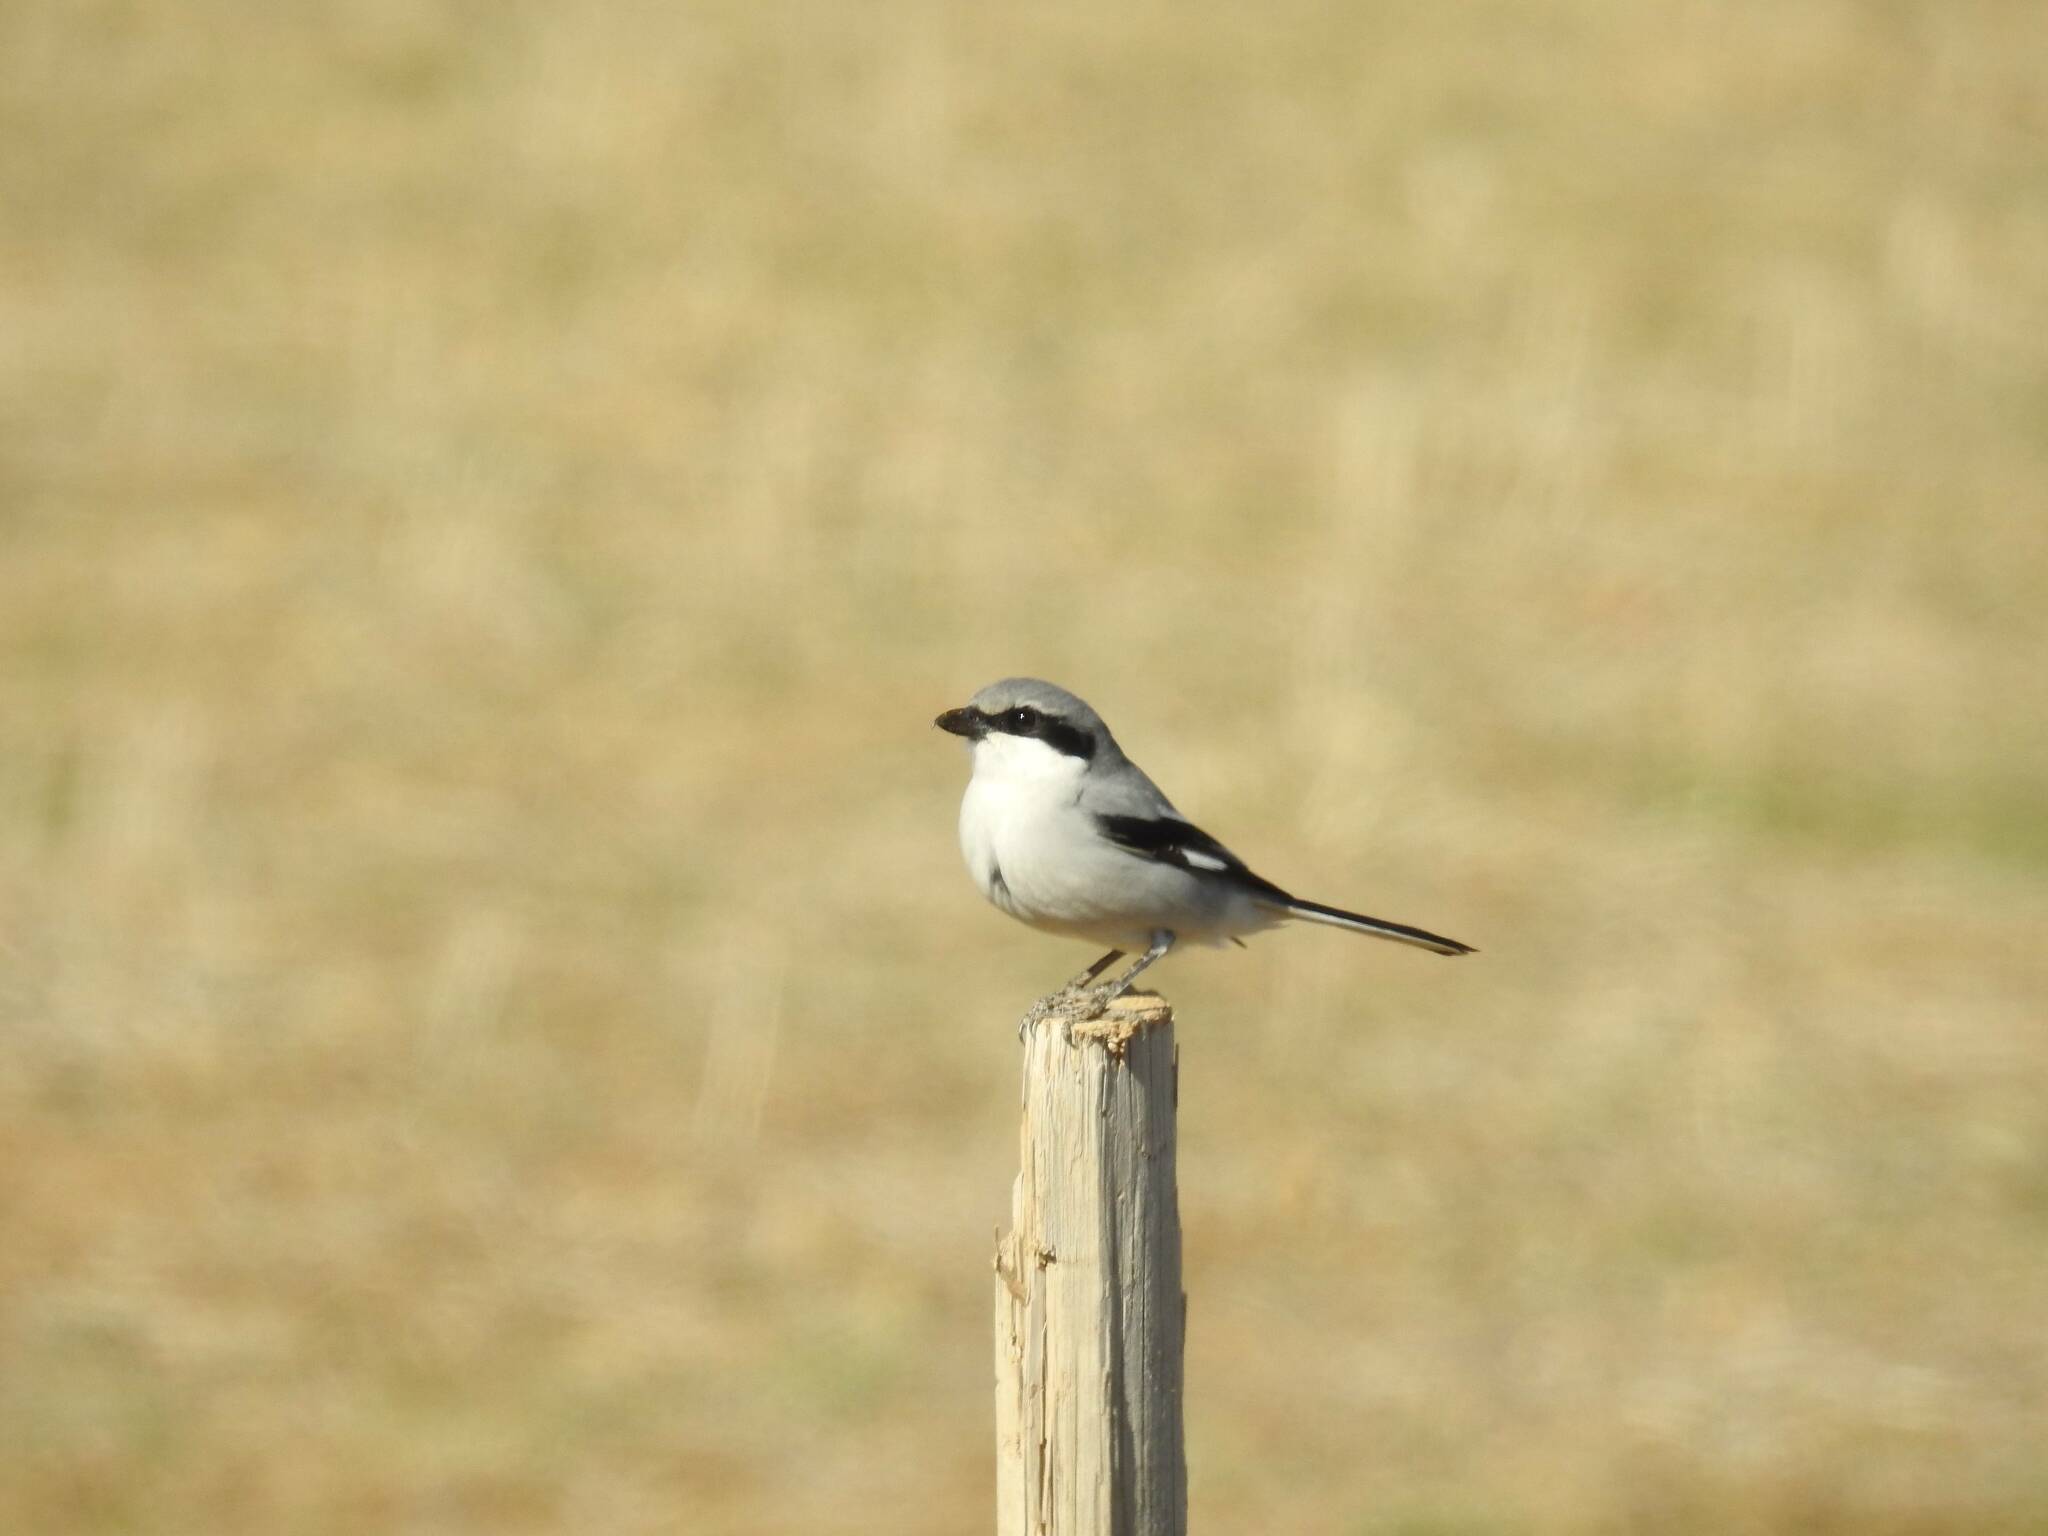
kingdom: Animalia
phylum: Chordata
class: Aves
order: Passeriformes
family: Laniidae
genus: Lanius
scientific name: Lanius excubitor
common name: Great grey shrike
